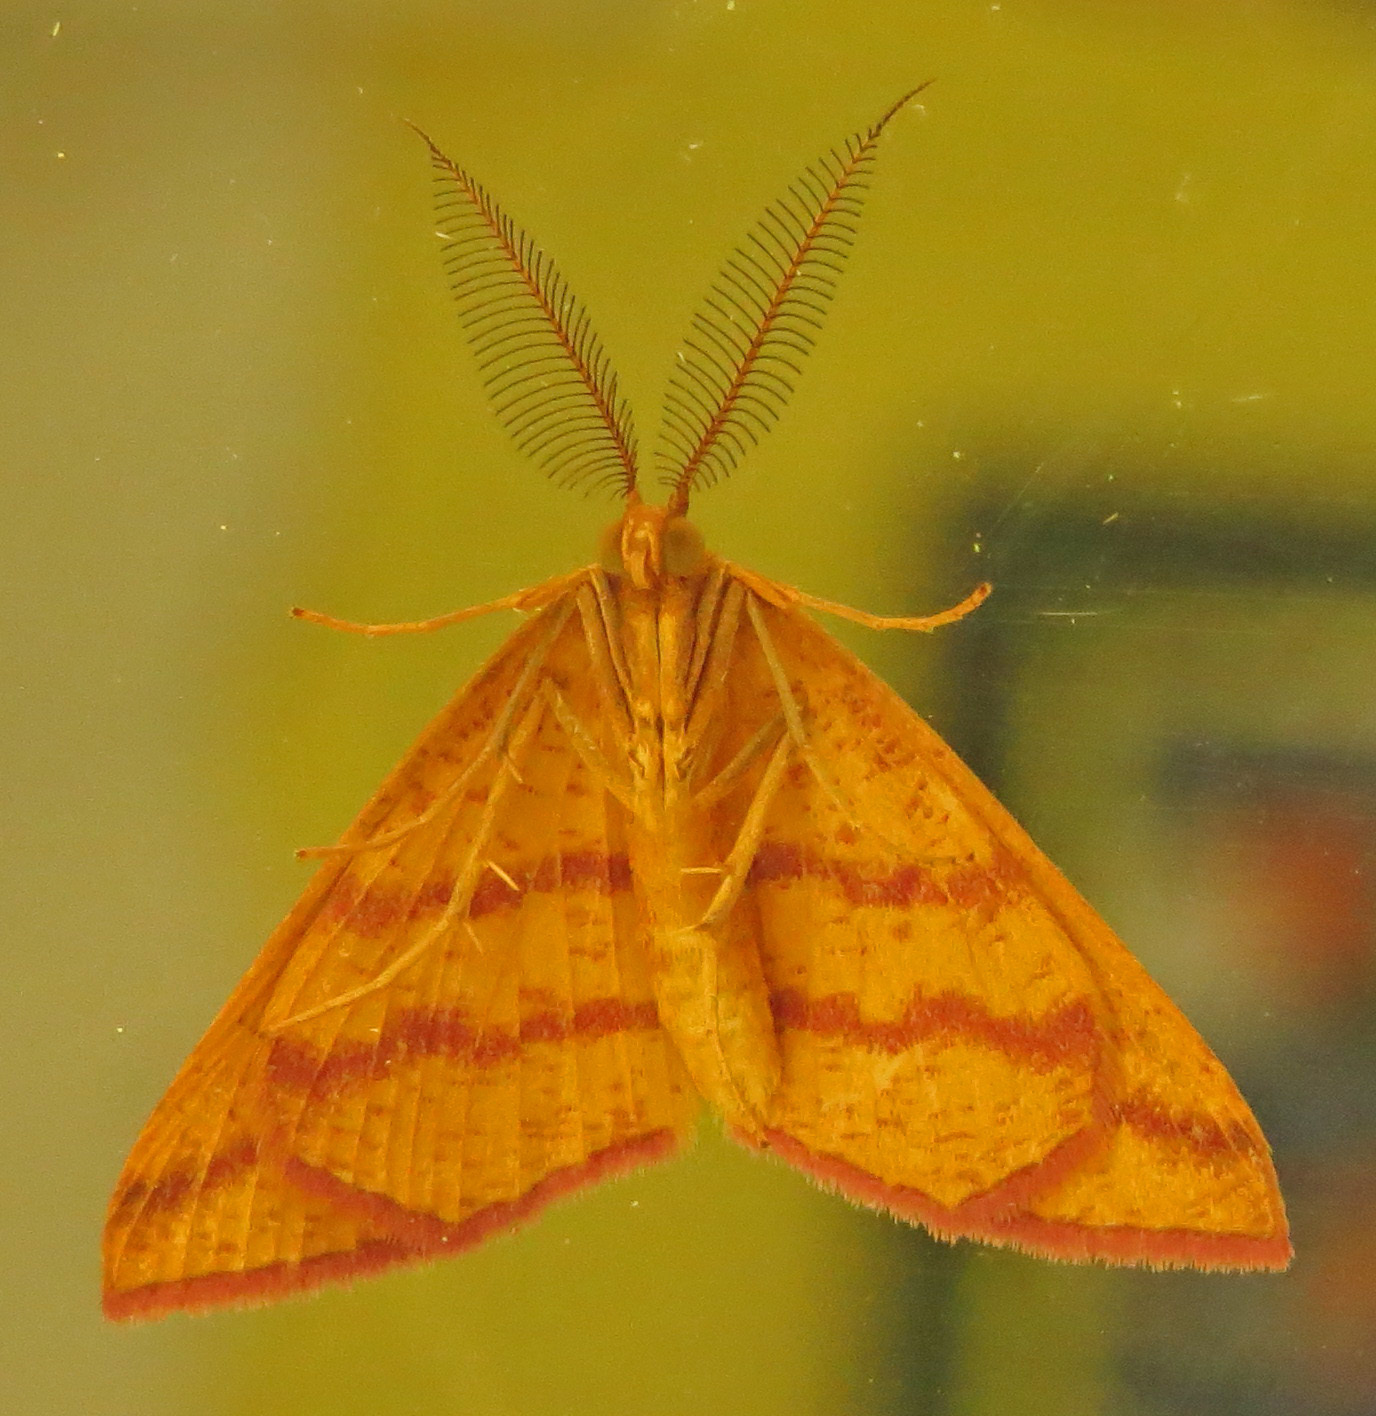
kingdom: Animalia
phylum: Arthropoda
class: Insecta
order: Lepidoptera
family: Geometridae
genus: Haematopis
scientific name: Haematopis grataria
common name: Chickweed geometer
